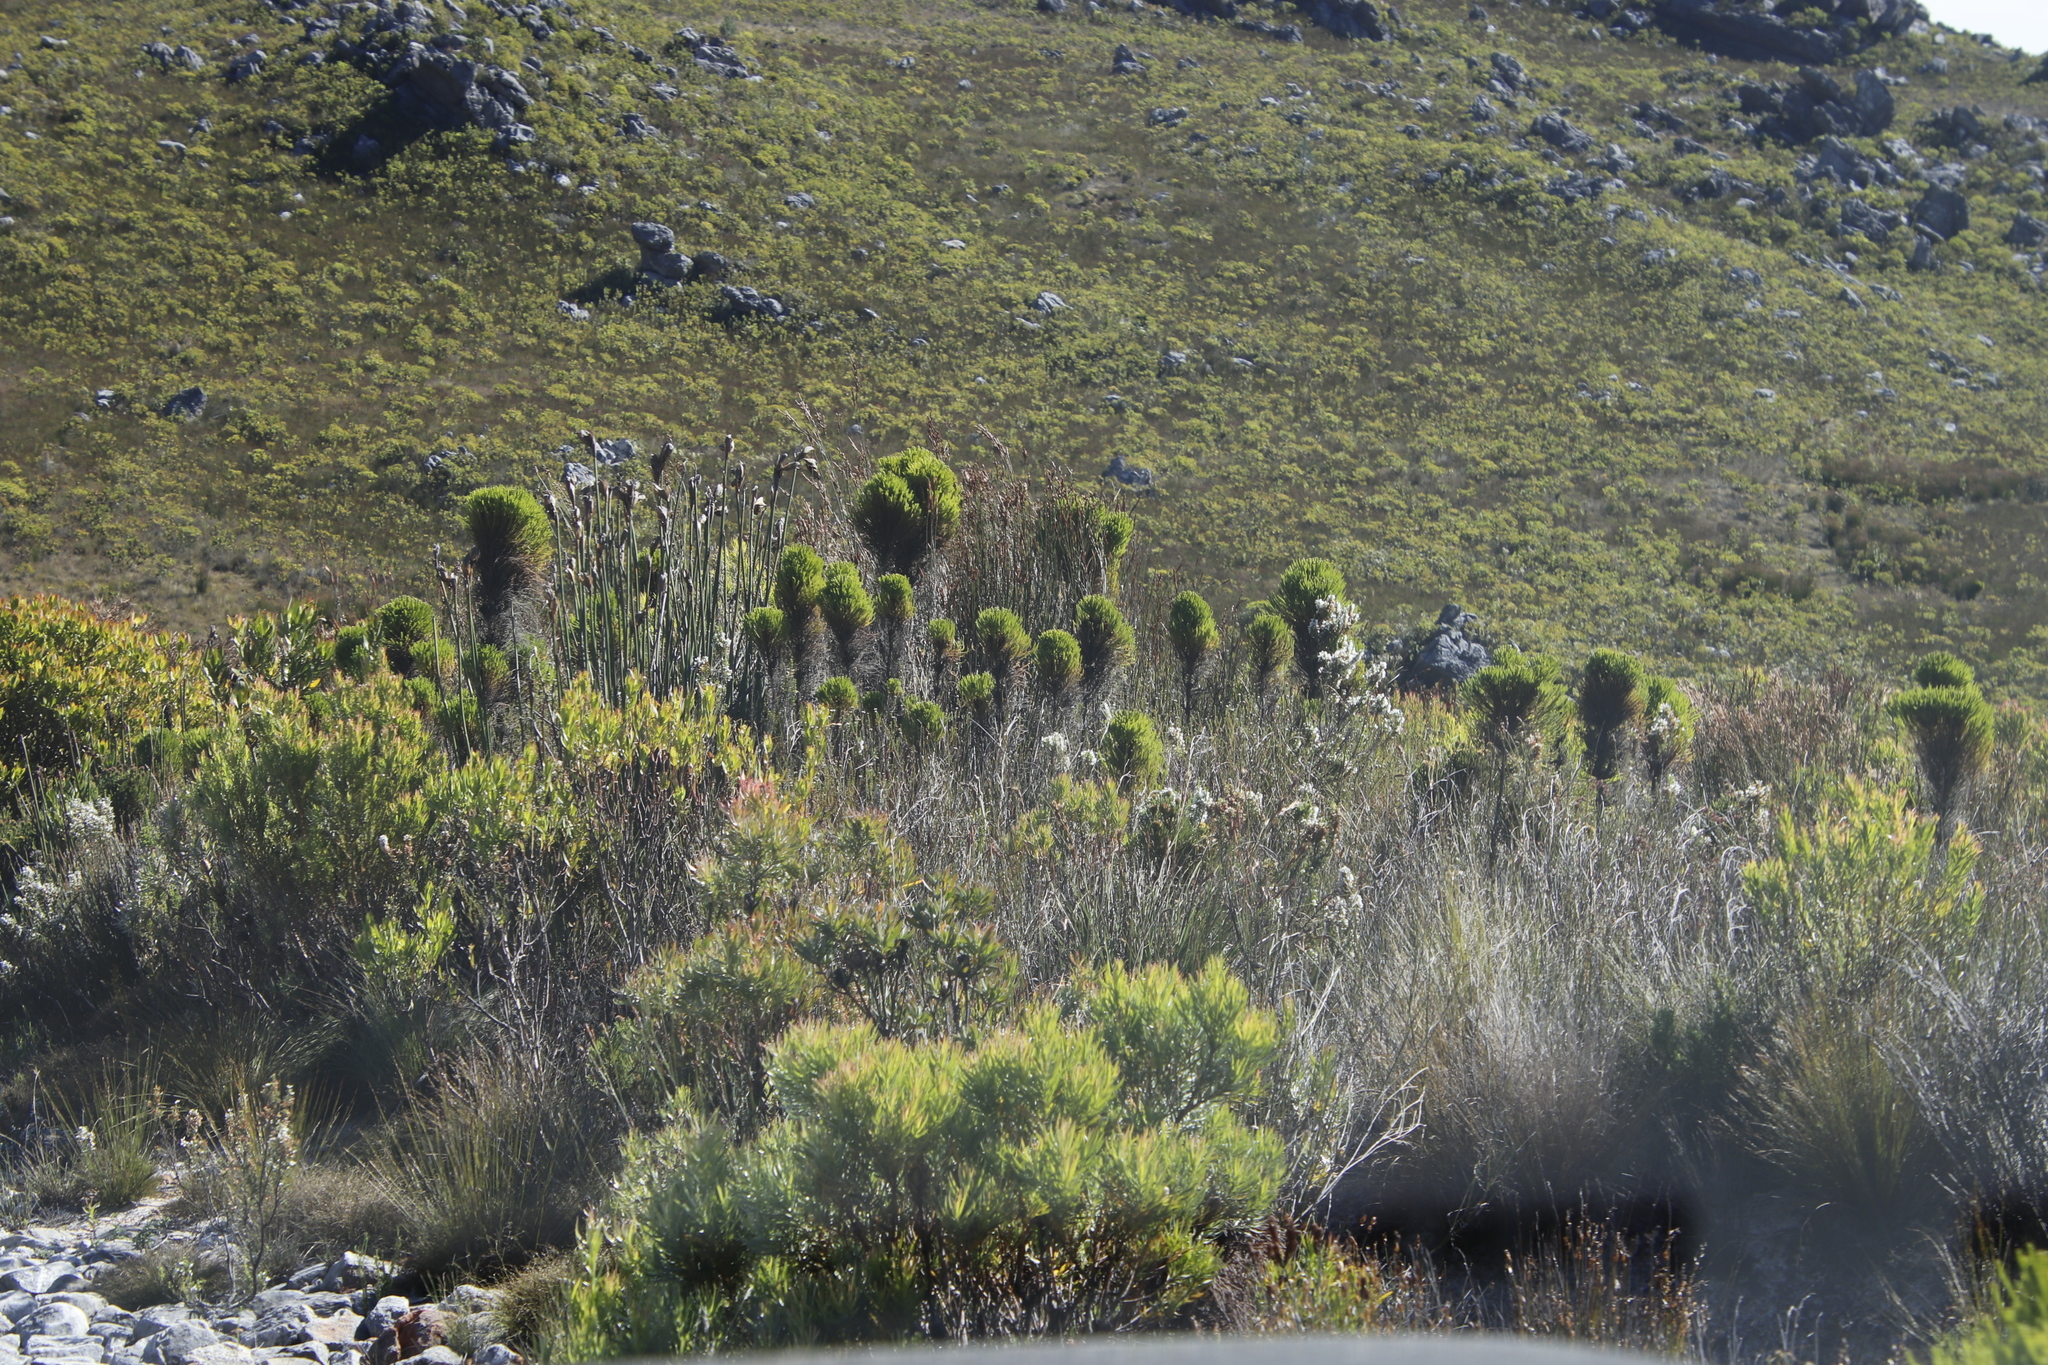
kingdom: Plantae
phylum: Tracheophyta
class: Magnoliopsida
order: Bruniales
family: Bruniaceae
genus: Berzelia
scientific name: Berzelia alopecurioides
